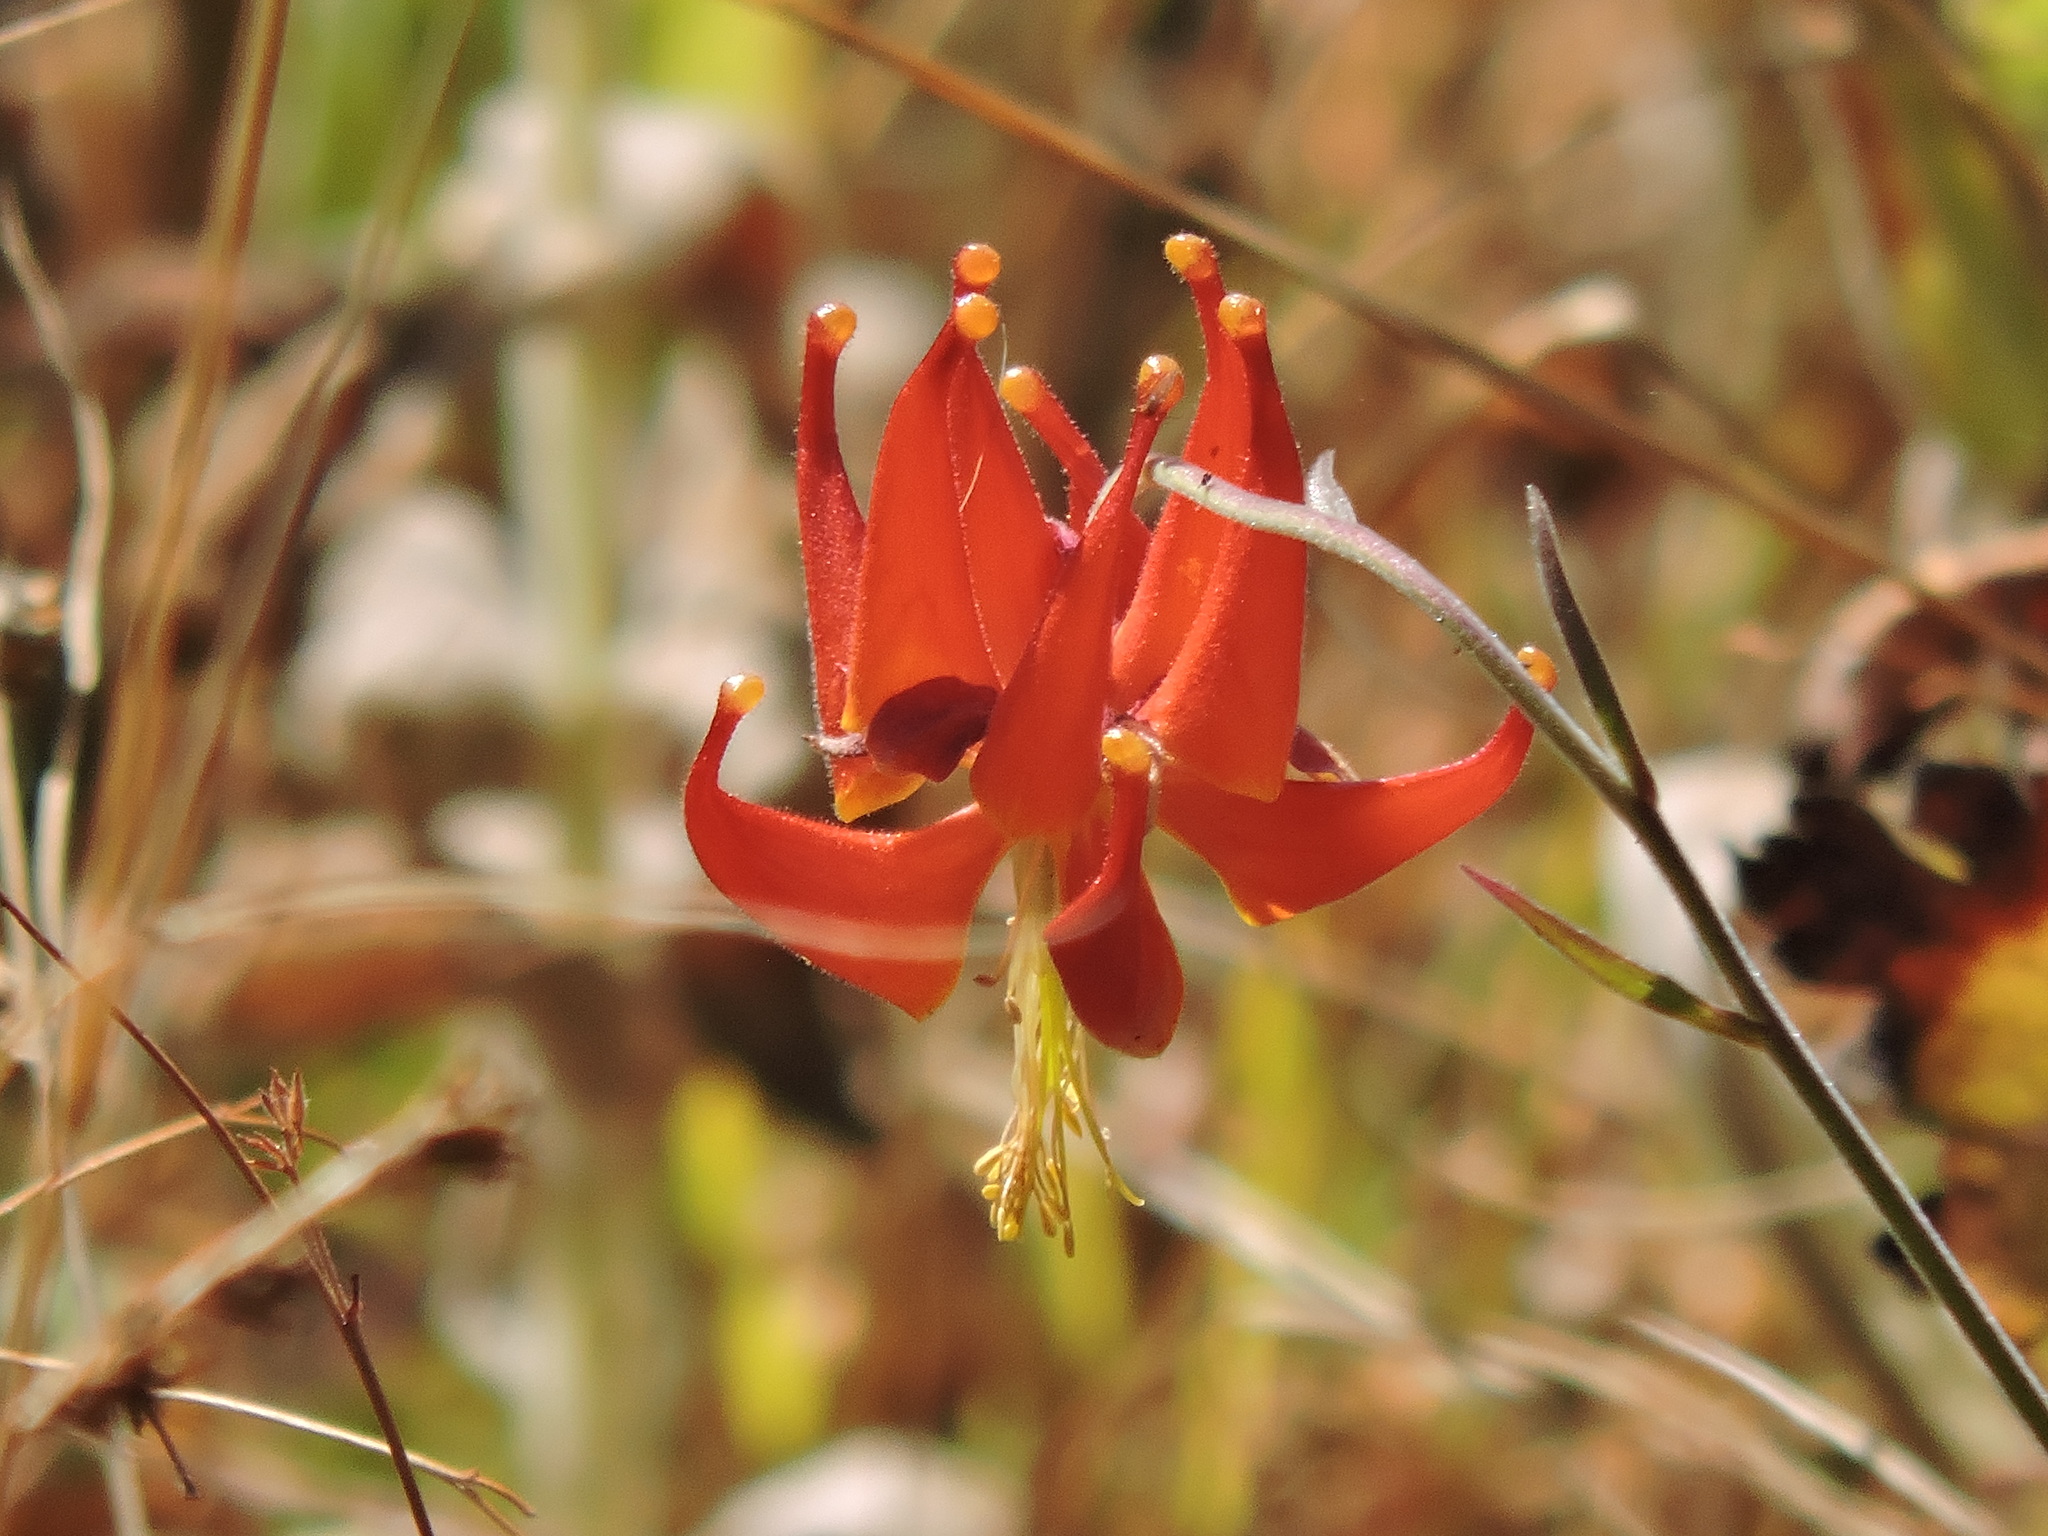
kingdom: Plantae
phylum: Tracheophyta
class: Magnoliopsida
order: Ranunculales
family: Ranunculaceae
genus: Aquilegia
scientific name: Aquilegia eximia
